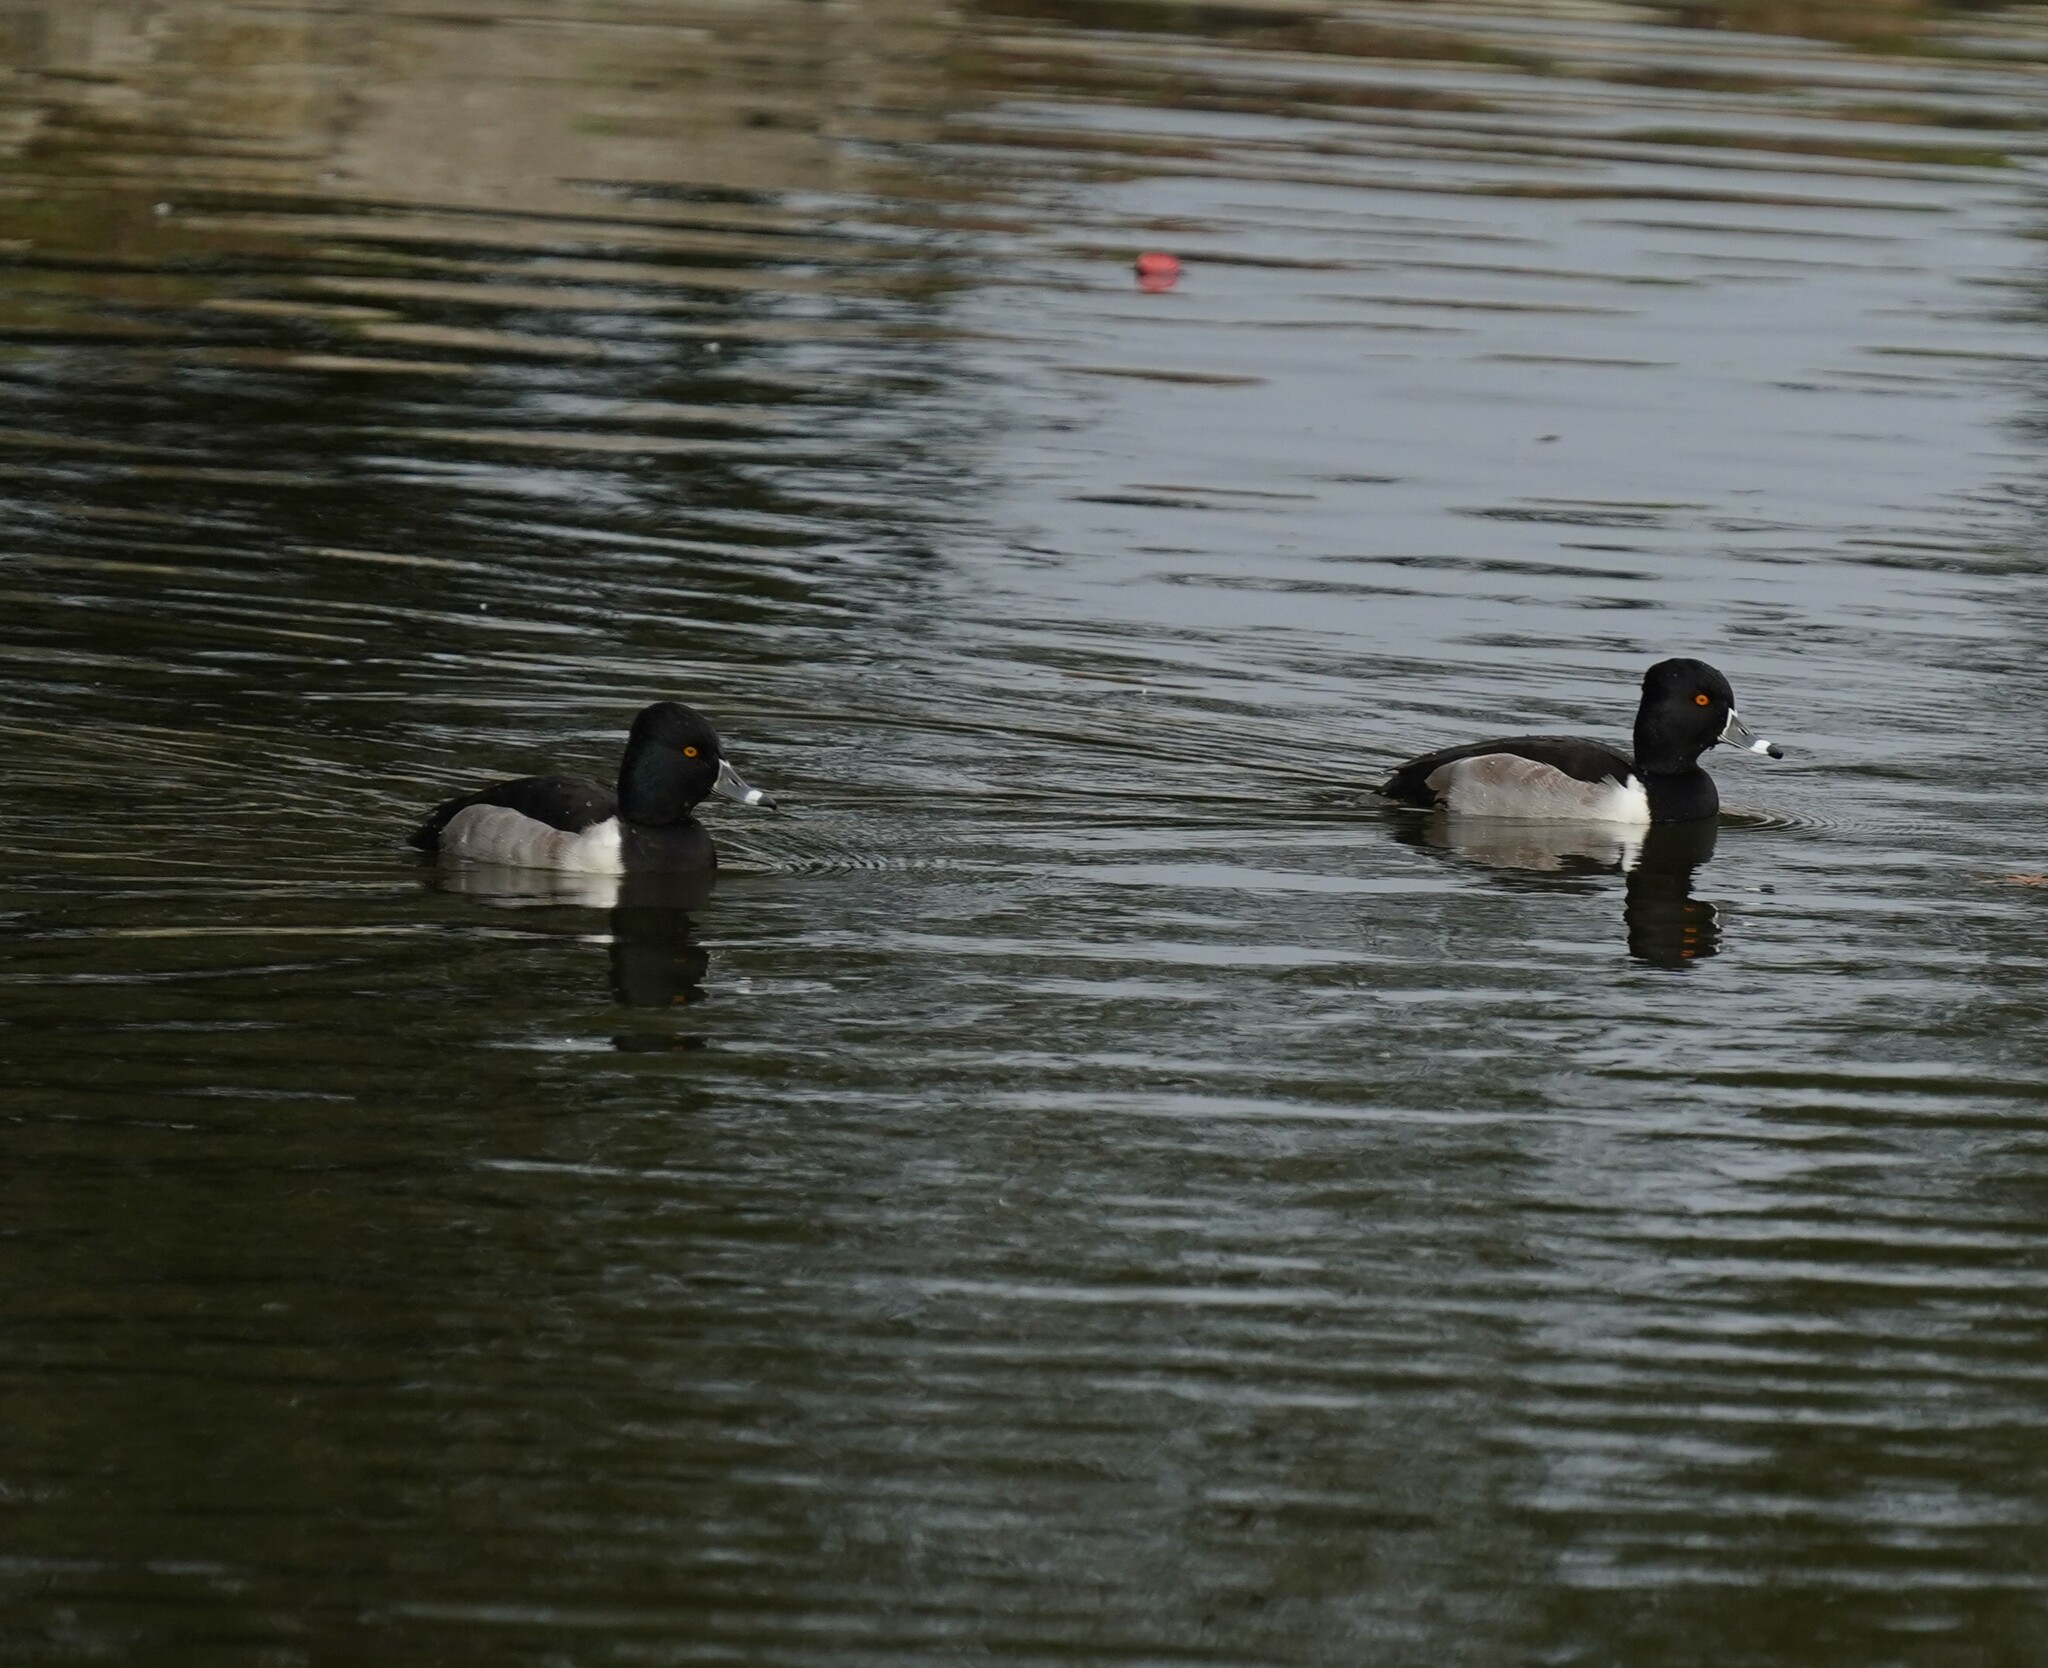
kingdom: Animalia
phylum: Chordata
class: Aves
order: Anseriformes
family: Anatidae
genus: Aythya
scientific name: Aythya collaris
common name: Ring-necked duck
